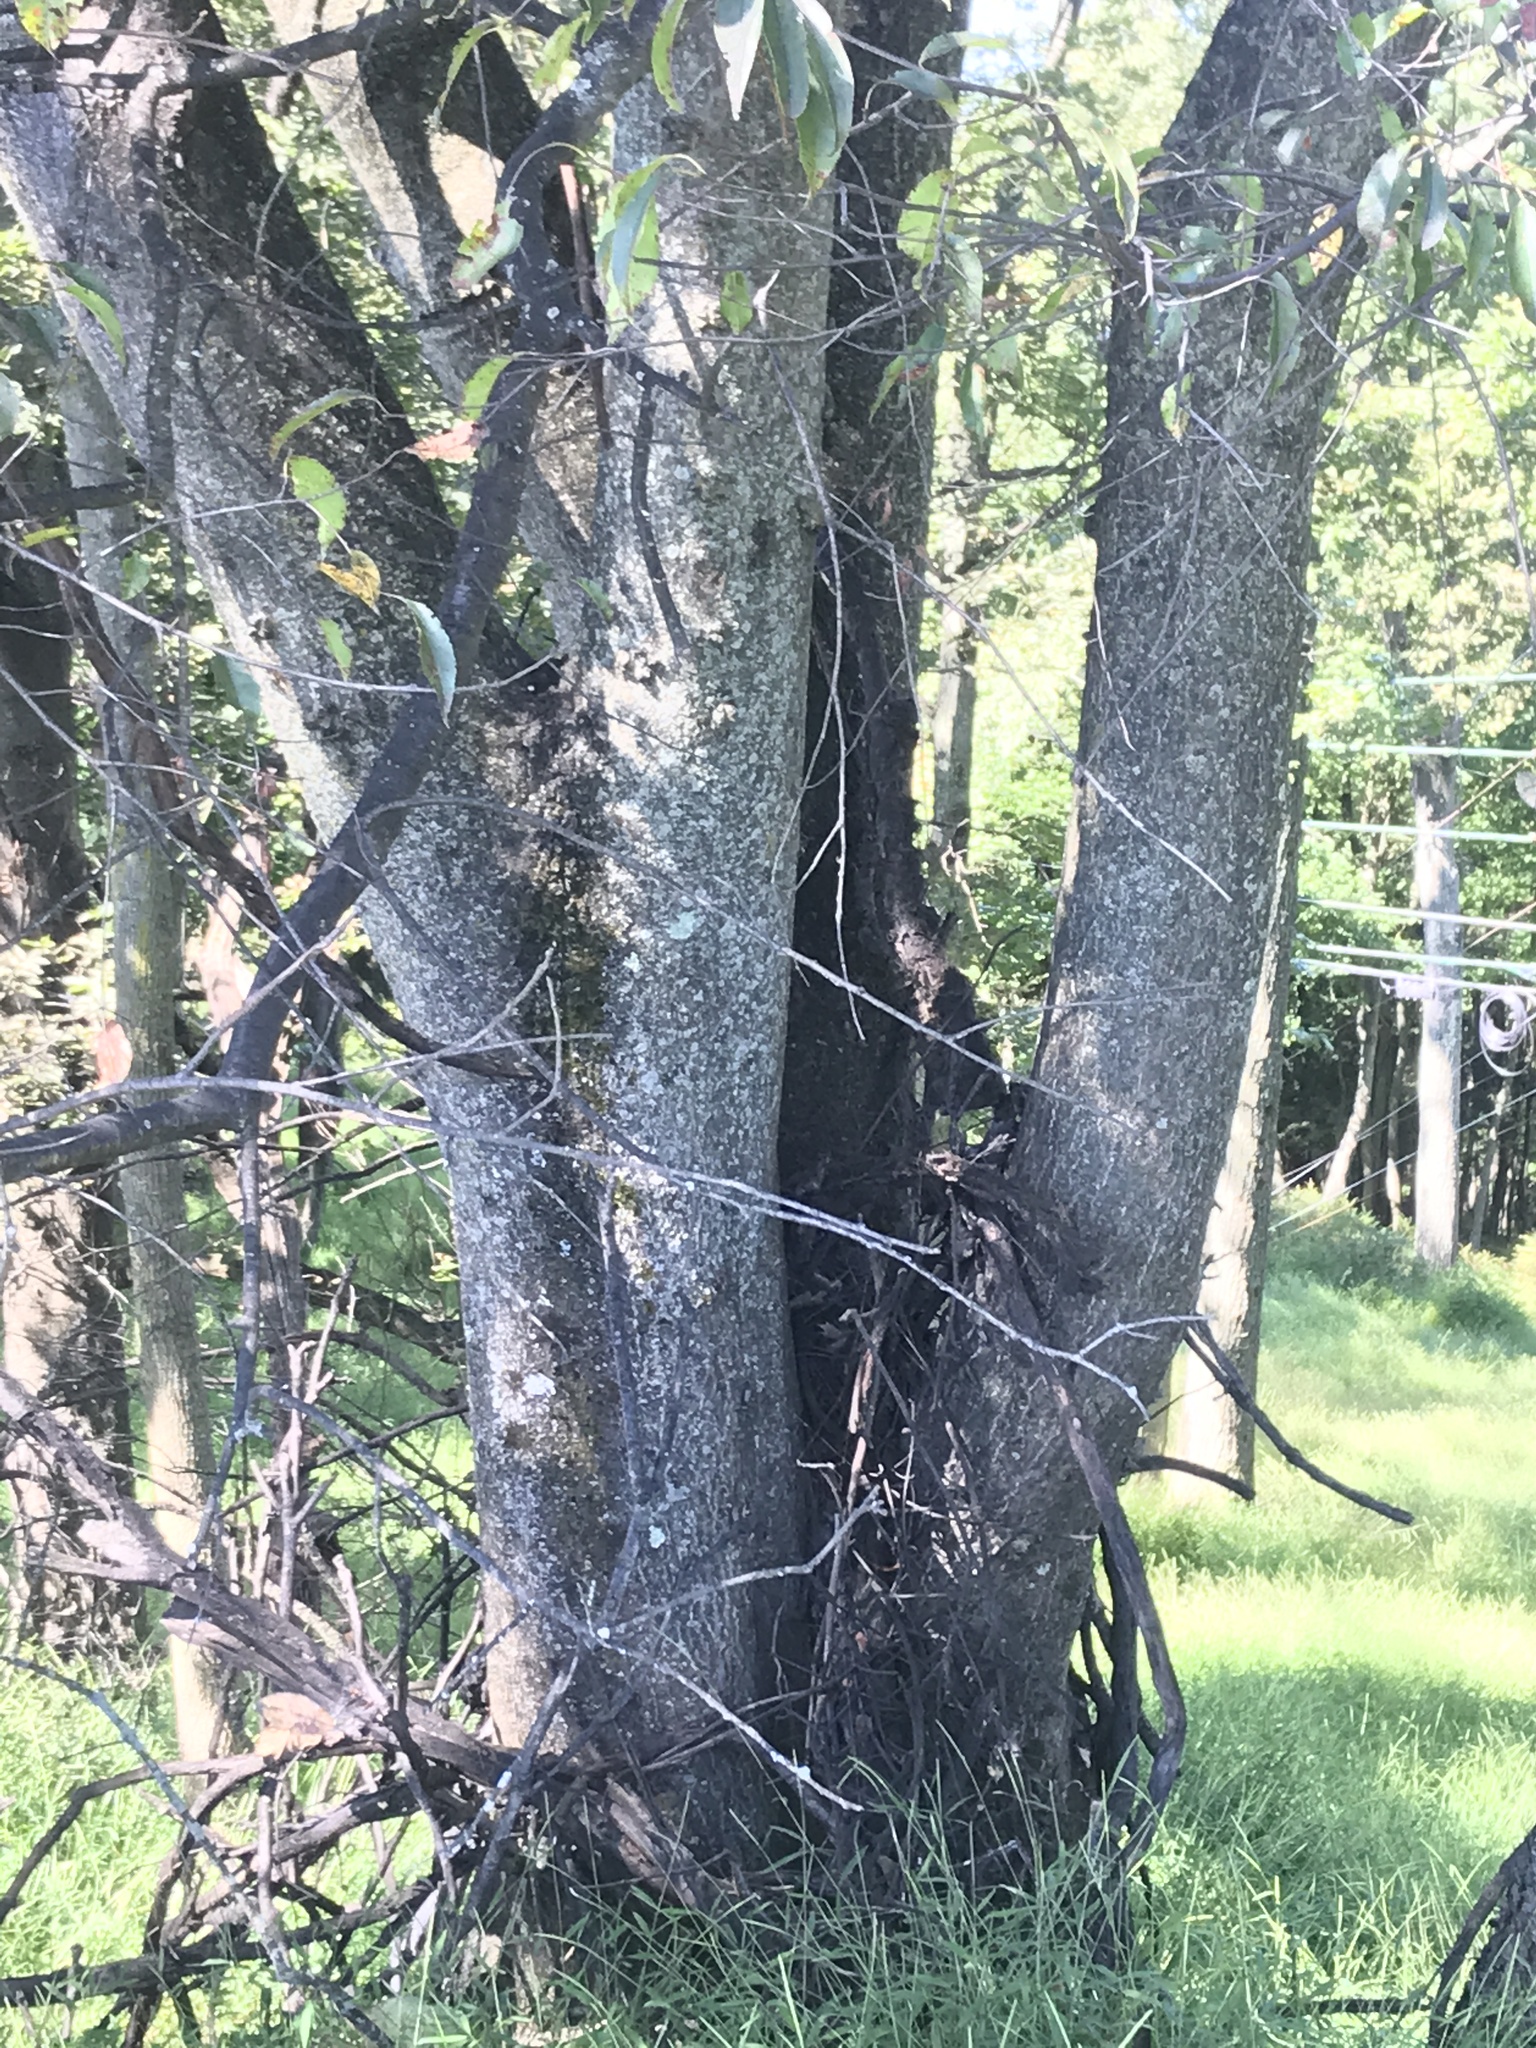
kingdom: Plantae
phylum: Tracheophyta
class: Magnoliopsida
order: Sapindales
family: Simaroubaceae
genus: Ailanthus
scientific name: Ailanthus altissima
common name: Tree-of-heaven
